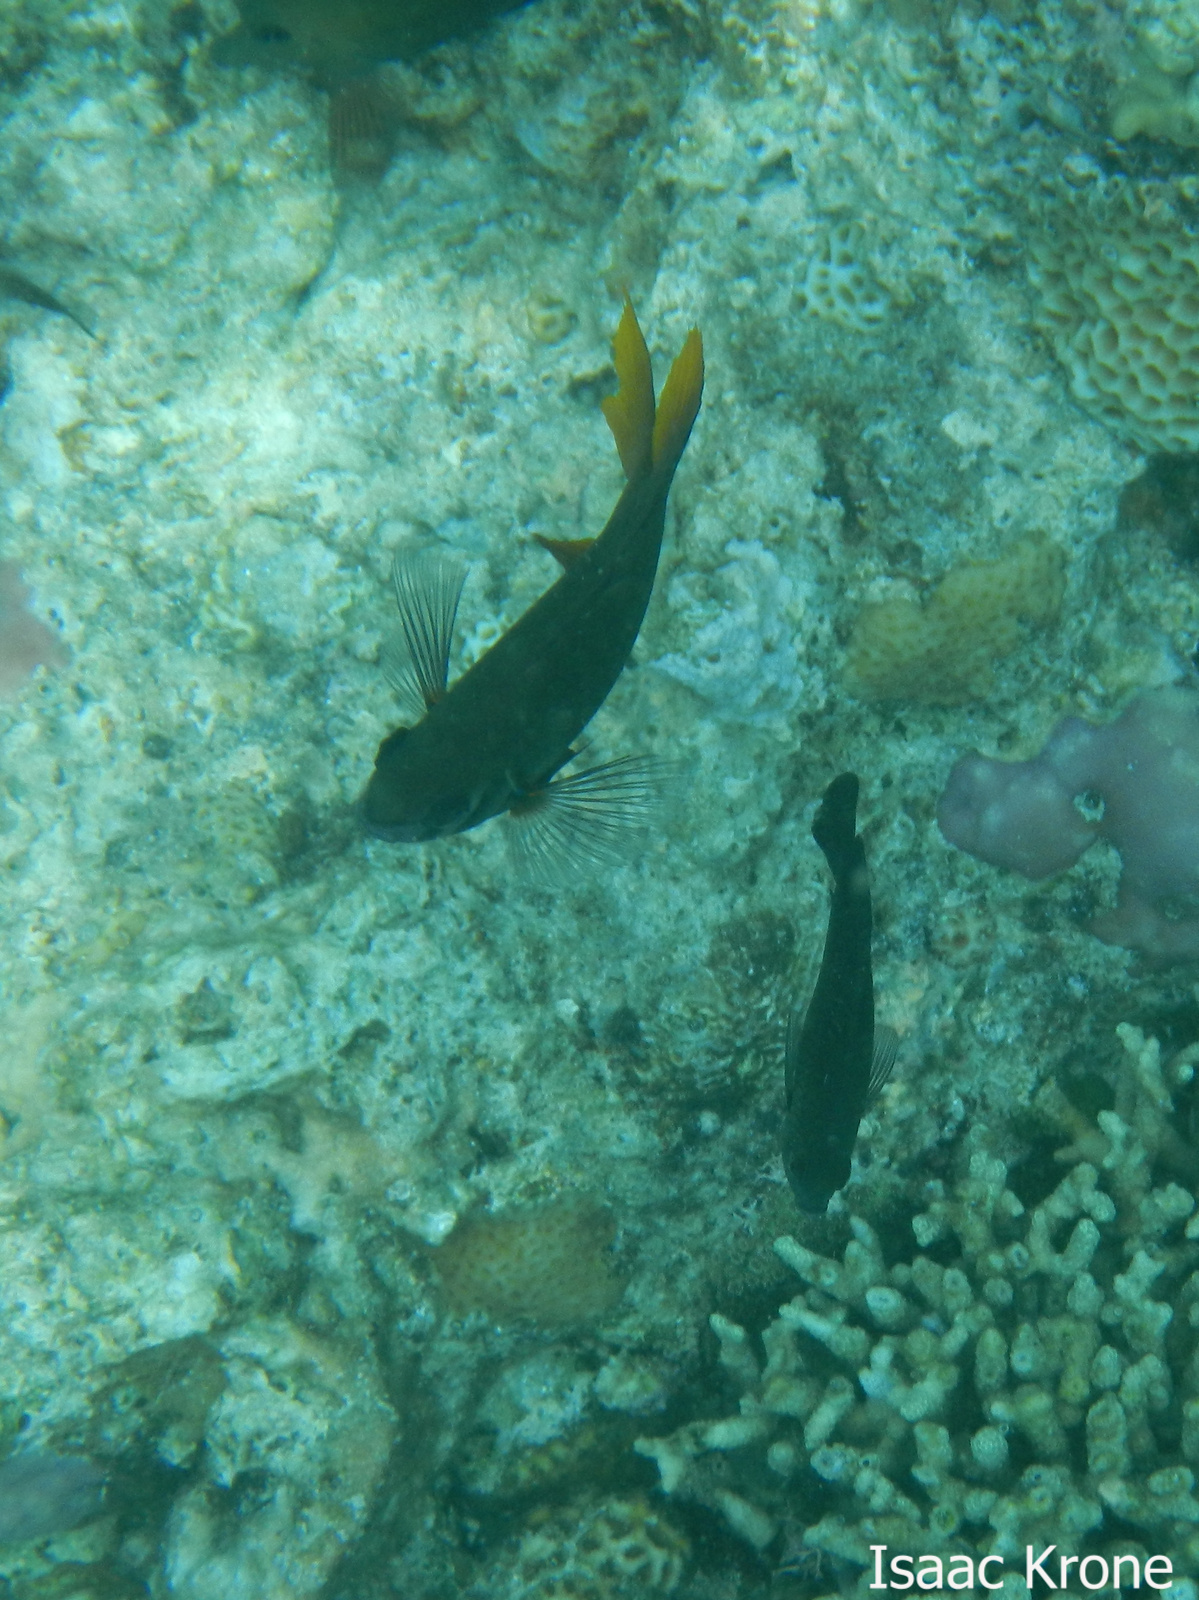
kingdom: Animalia
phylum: Chordata
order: Perciformes
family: Pomacentridae
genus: Neoglyphidodon
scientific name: Neoglyphidodon nigroris
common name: Behn's damsel
